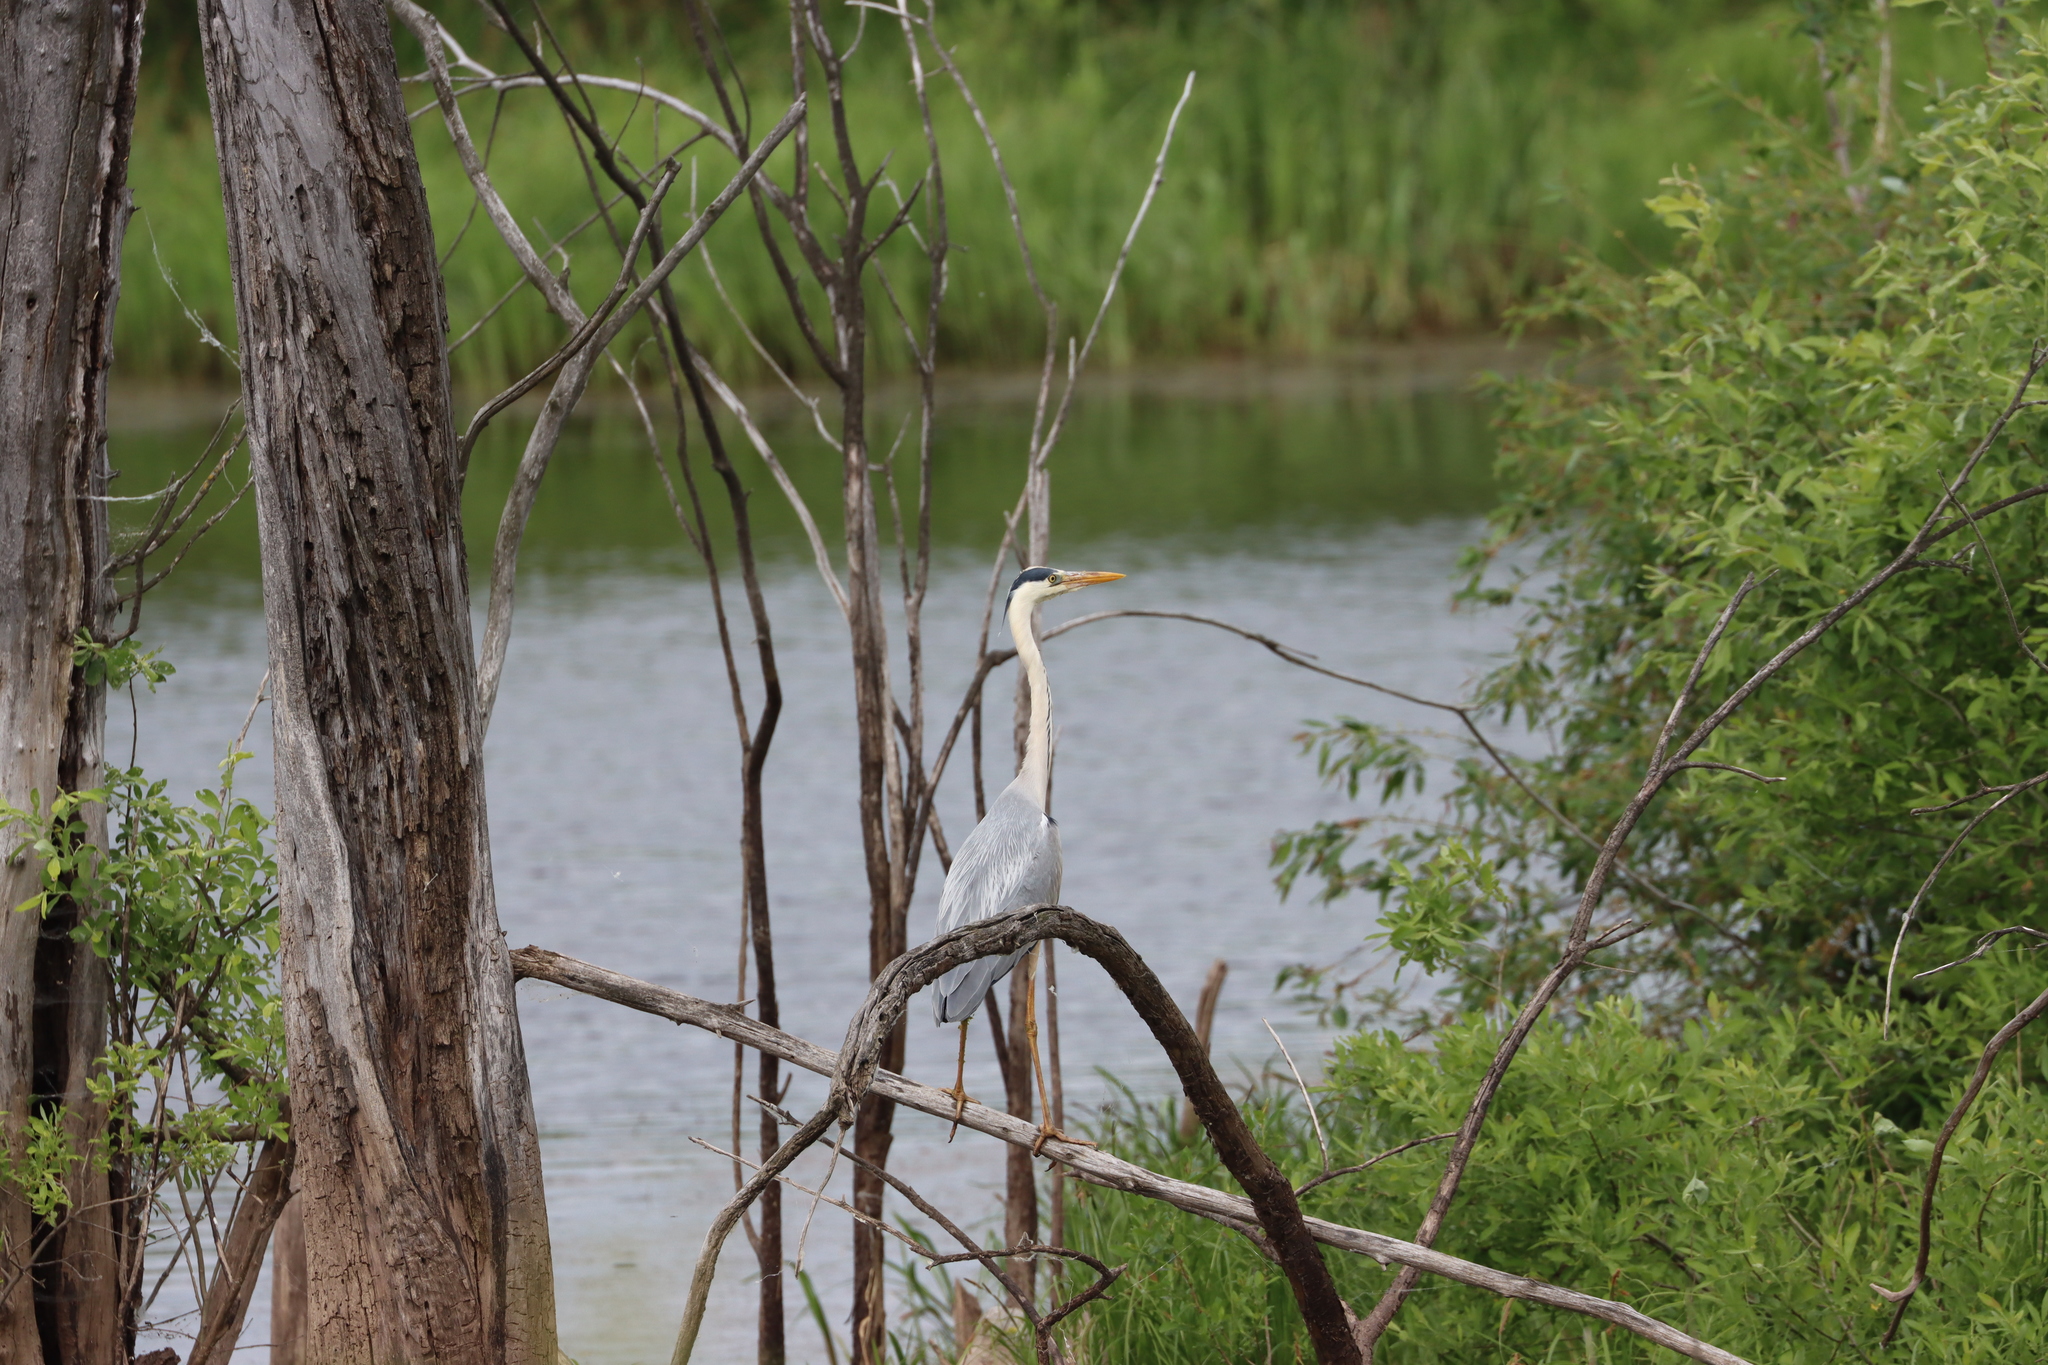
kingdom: Animalia
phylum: Chordata
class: Aves
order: Pelecaniformes
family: Ardeidae
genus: Ardea
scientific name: Ardea cinerea
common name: Grey heron
